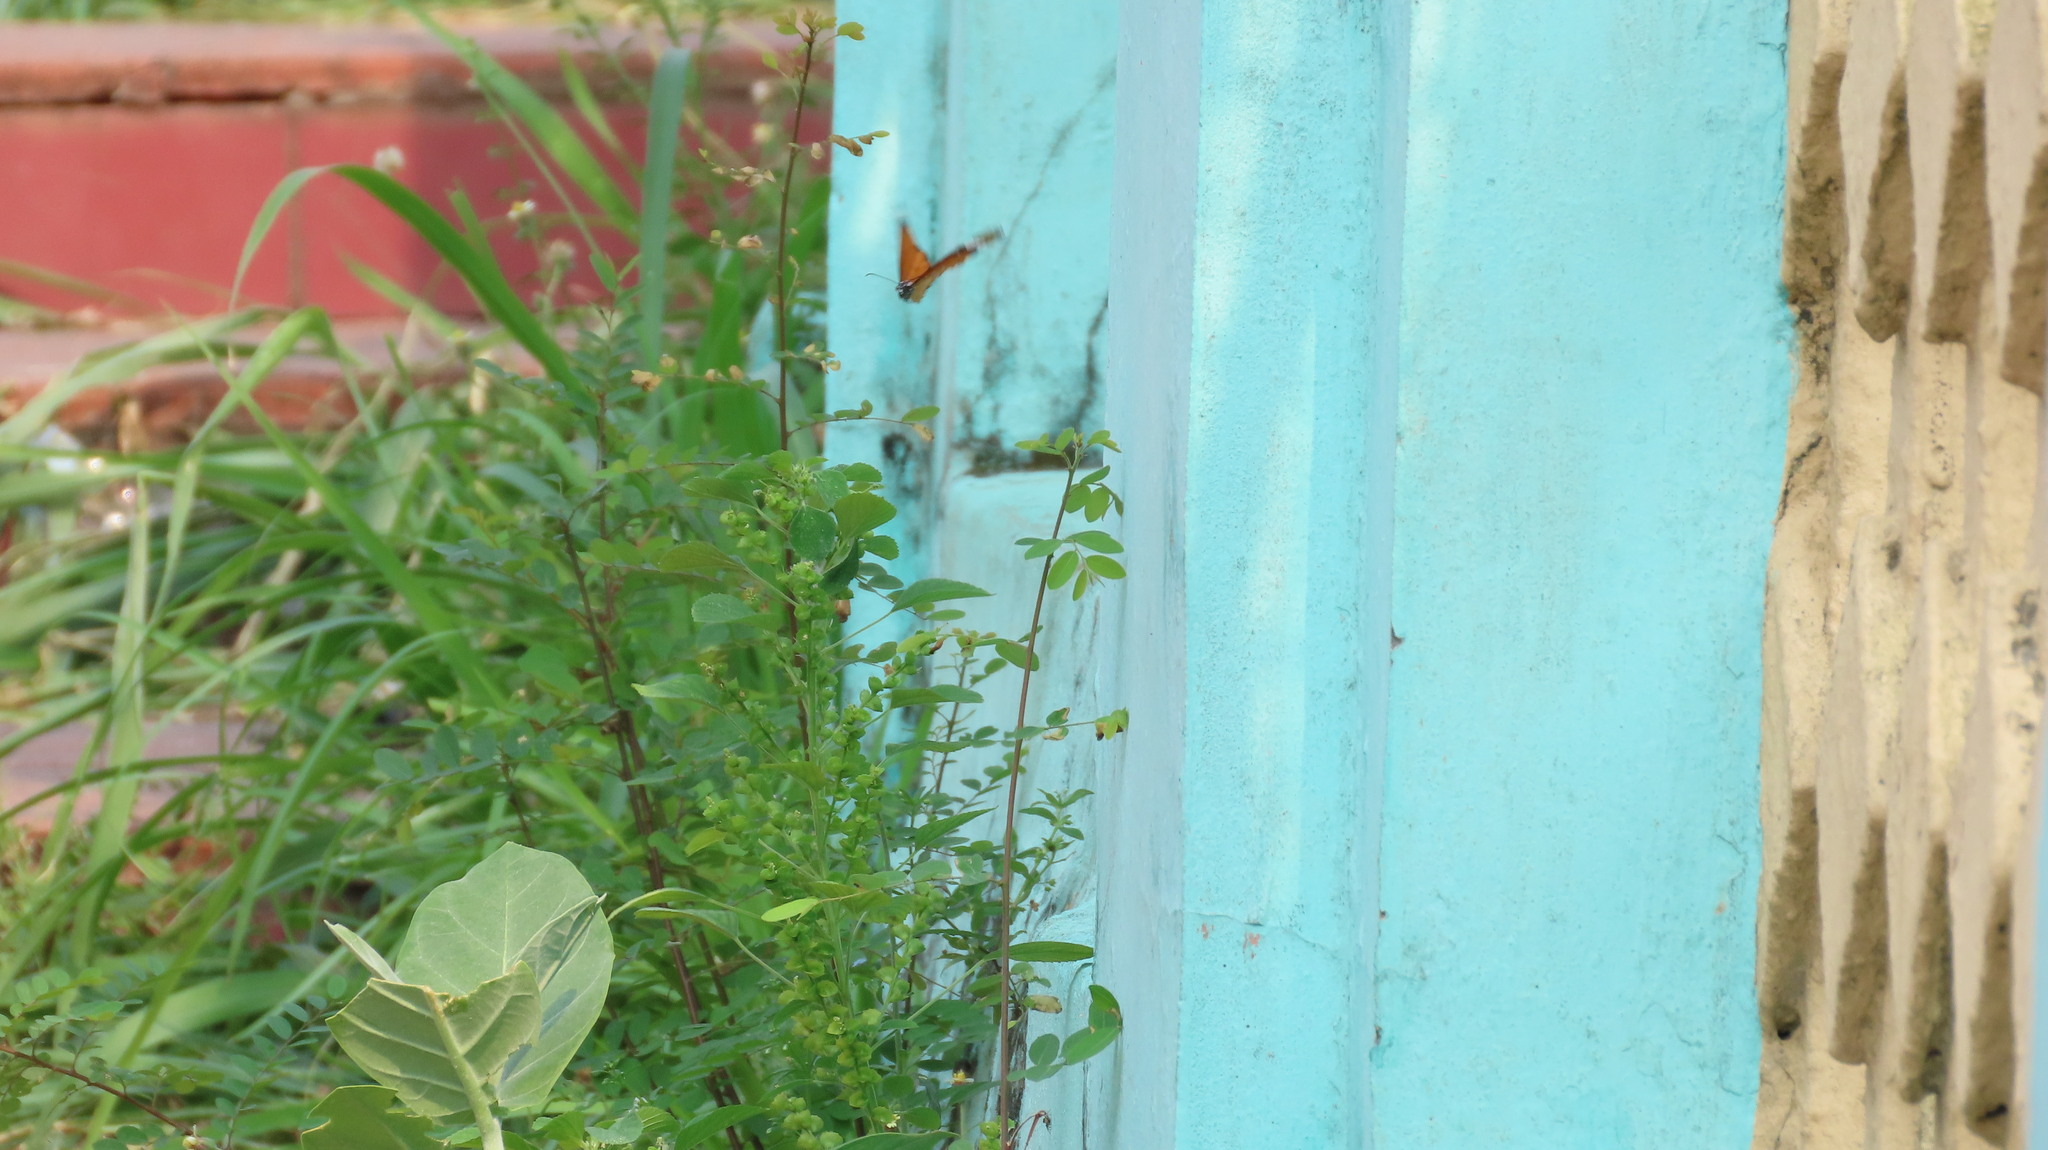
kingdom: Animalia
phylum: Arthropoda
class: Insecta
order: Lepidoptera
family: Nymphalidae
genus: Danaus
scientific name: Danaus chrysippus
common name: Plain tiger
